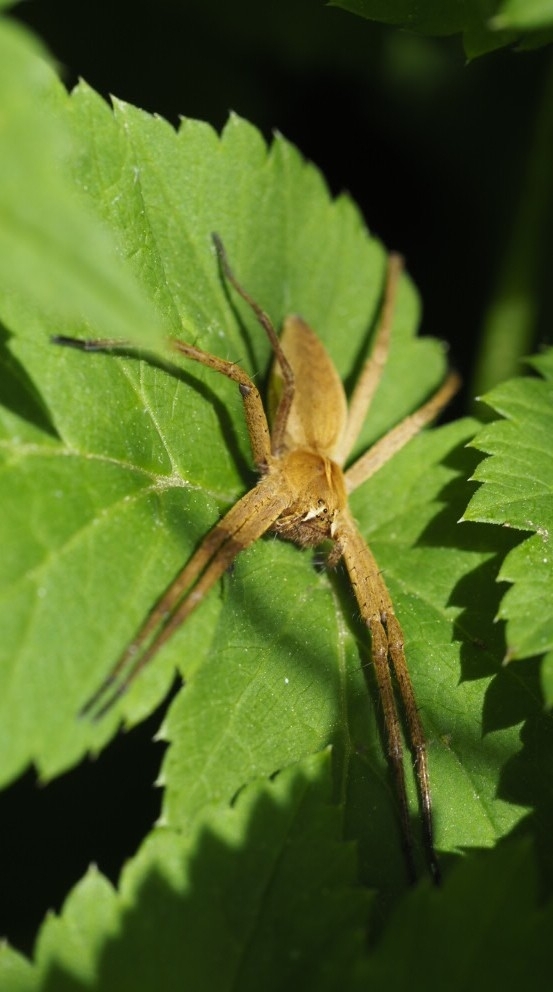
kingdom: Animalia
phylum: Arthropoda
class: Arachnida
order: Araneae
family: Pisauridae
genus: Pisaura
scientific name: Pisaura mirabilis
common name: Tent spider
